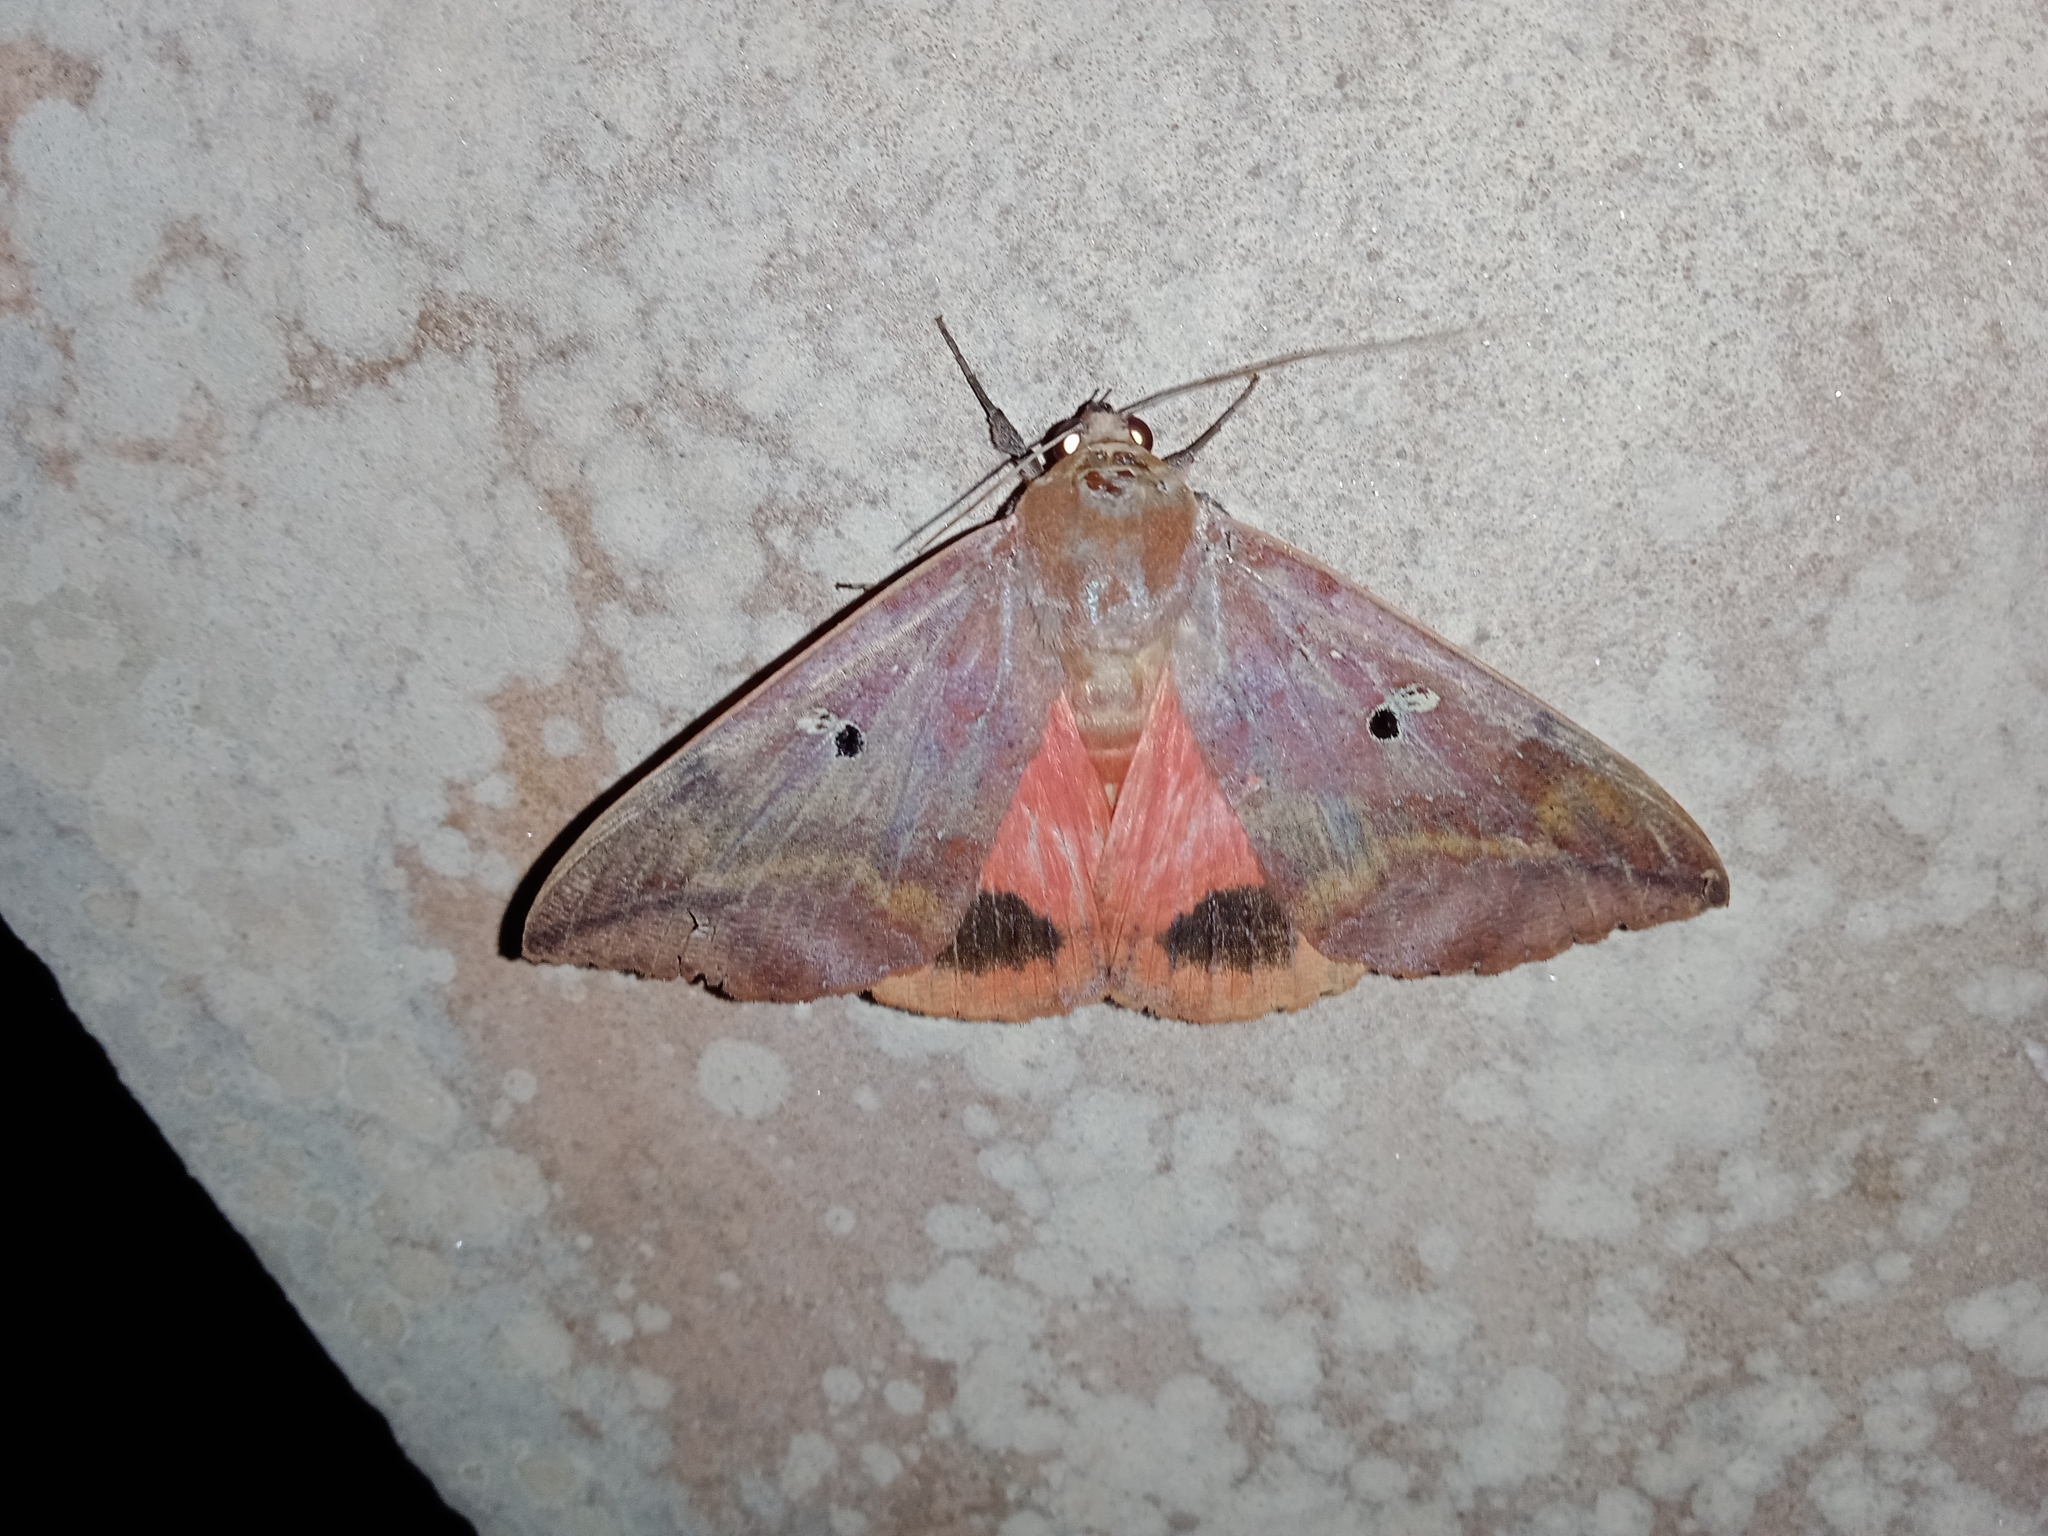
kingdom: Animalia
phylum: Arthropoda
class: Insecta
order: Lepidoptera
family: Erebidae
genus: Thyas
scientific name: Thyas honesta
